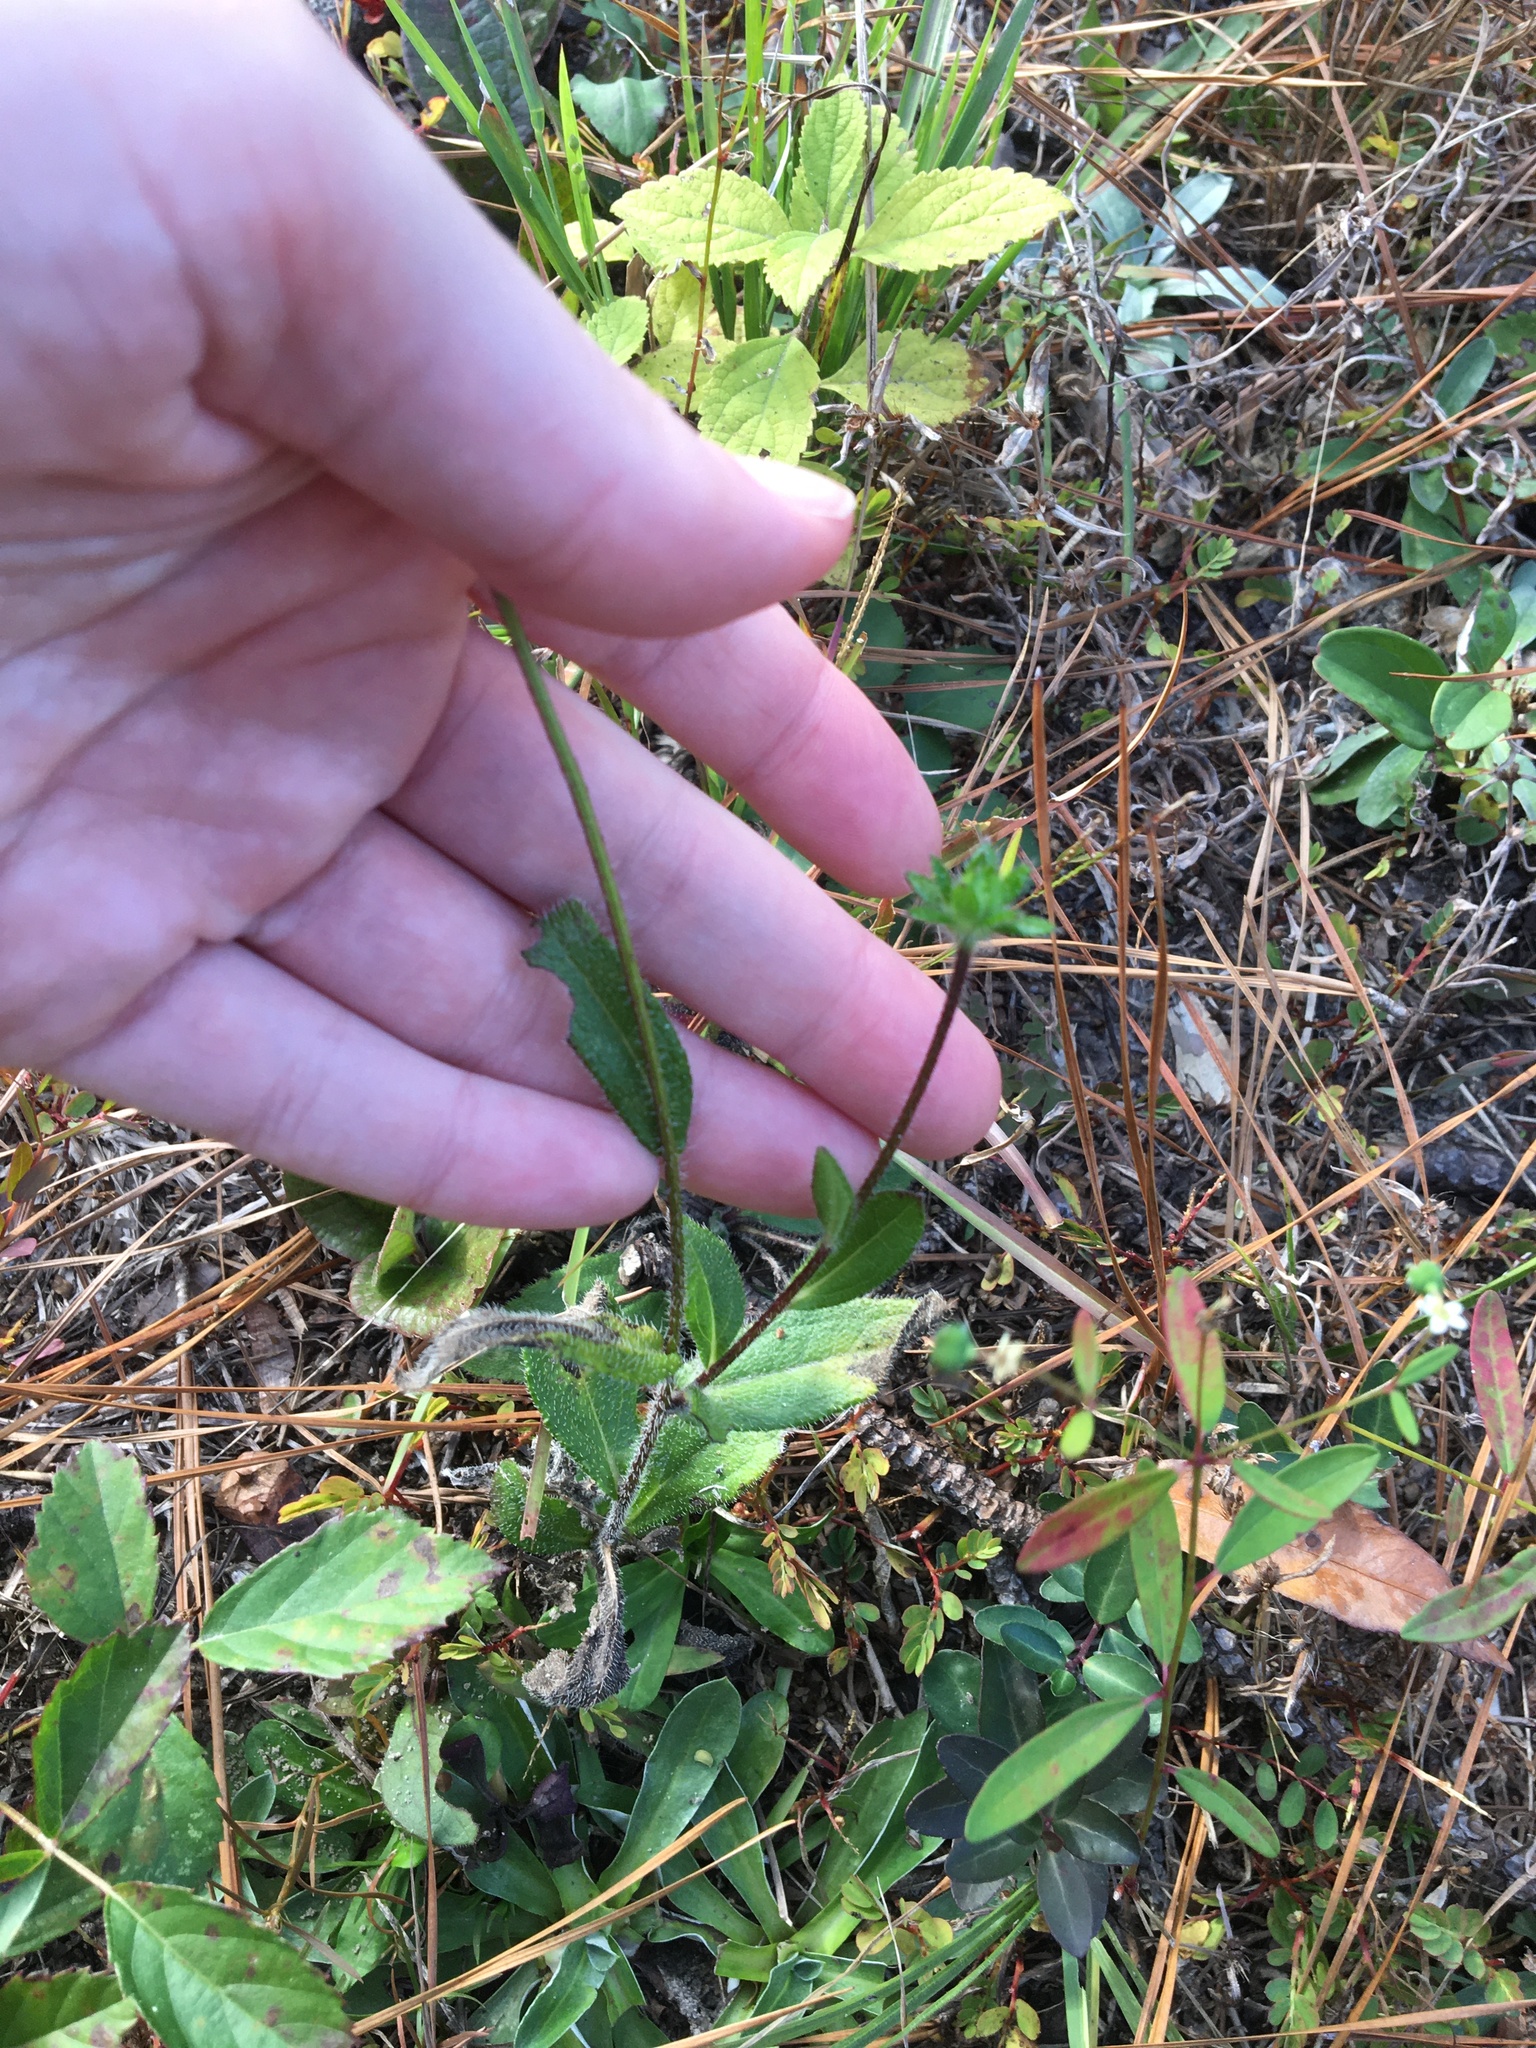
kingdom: Plantae
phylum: Tracheophyta
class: Magnoliopsida
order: Asterales
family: Asteraceae
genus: Rudbeckia
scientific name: Rudbeckia hirta
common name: Black-eyed-susan
